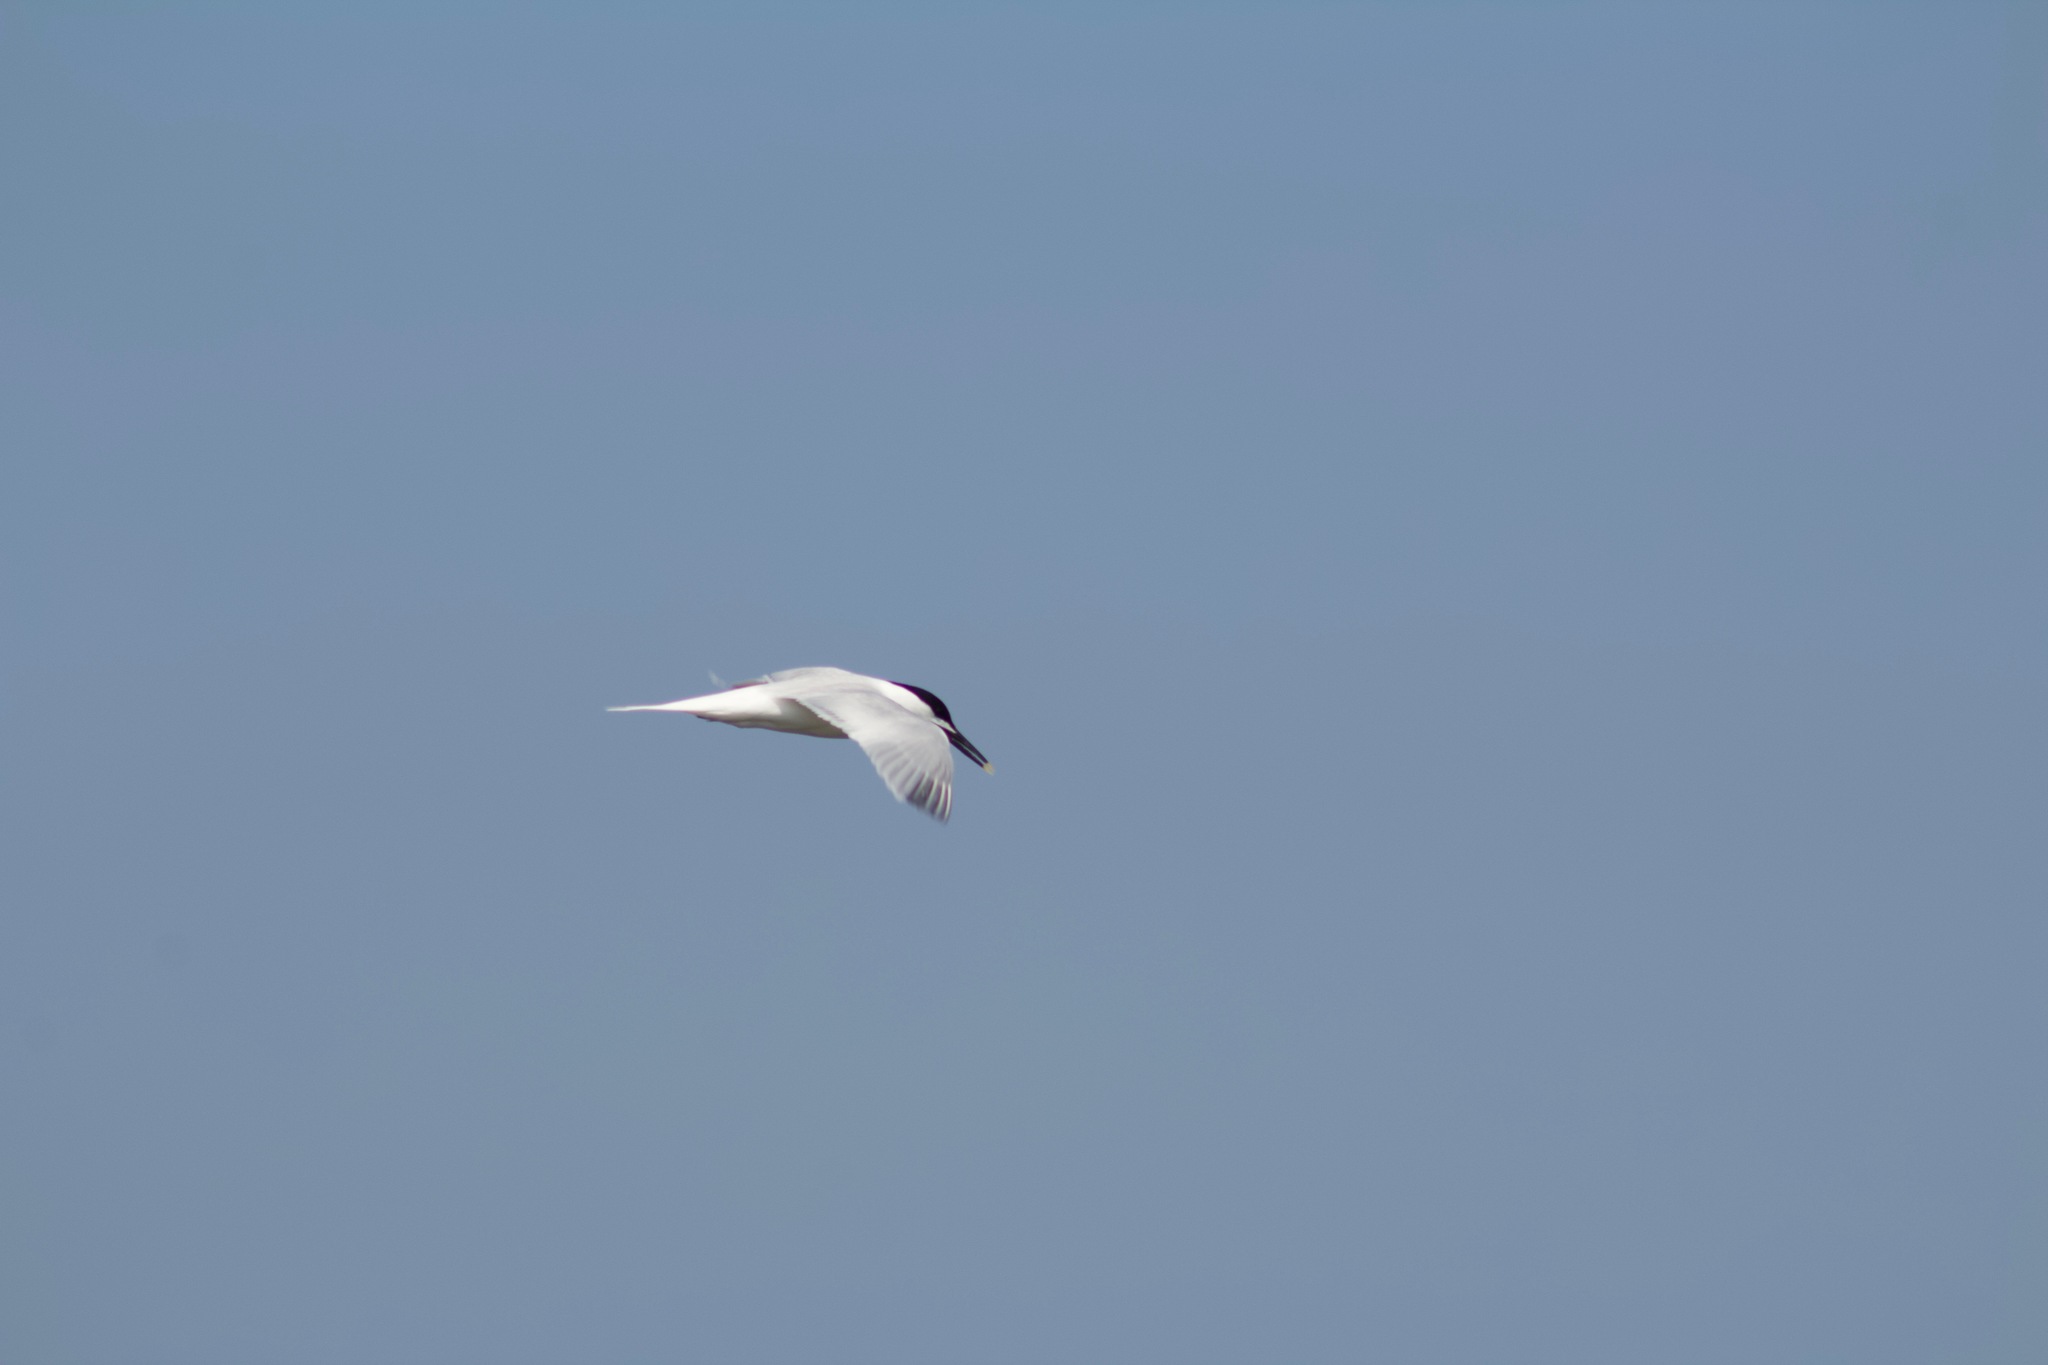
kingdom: Animalia
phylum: Chordata
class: Aves
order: Charadriiformes
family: Laridae
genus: Thalasseus
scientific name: Thalasseus sandvicensis
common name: Sandwich tern
